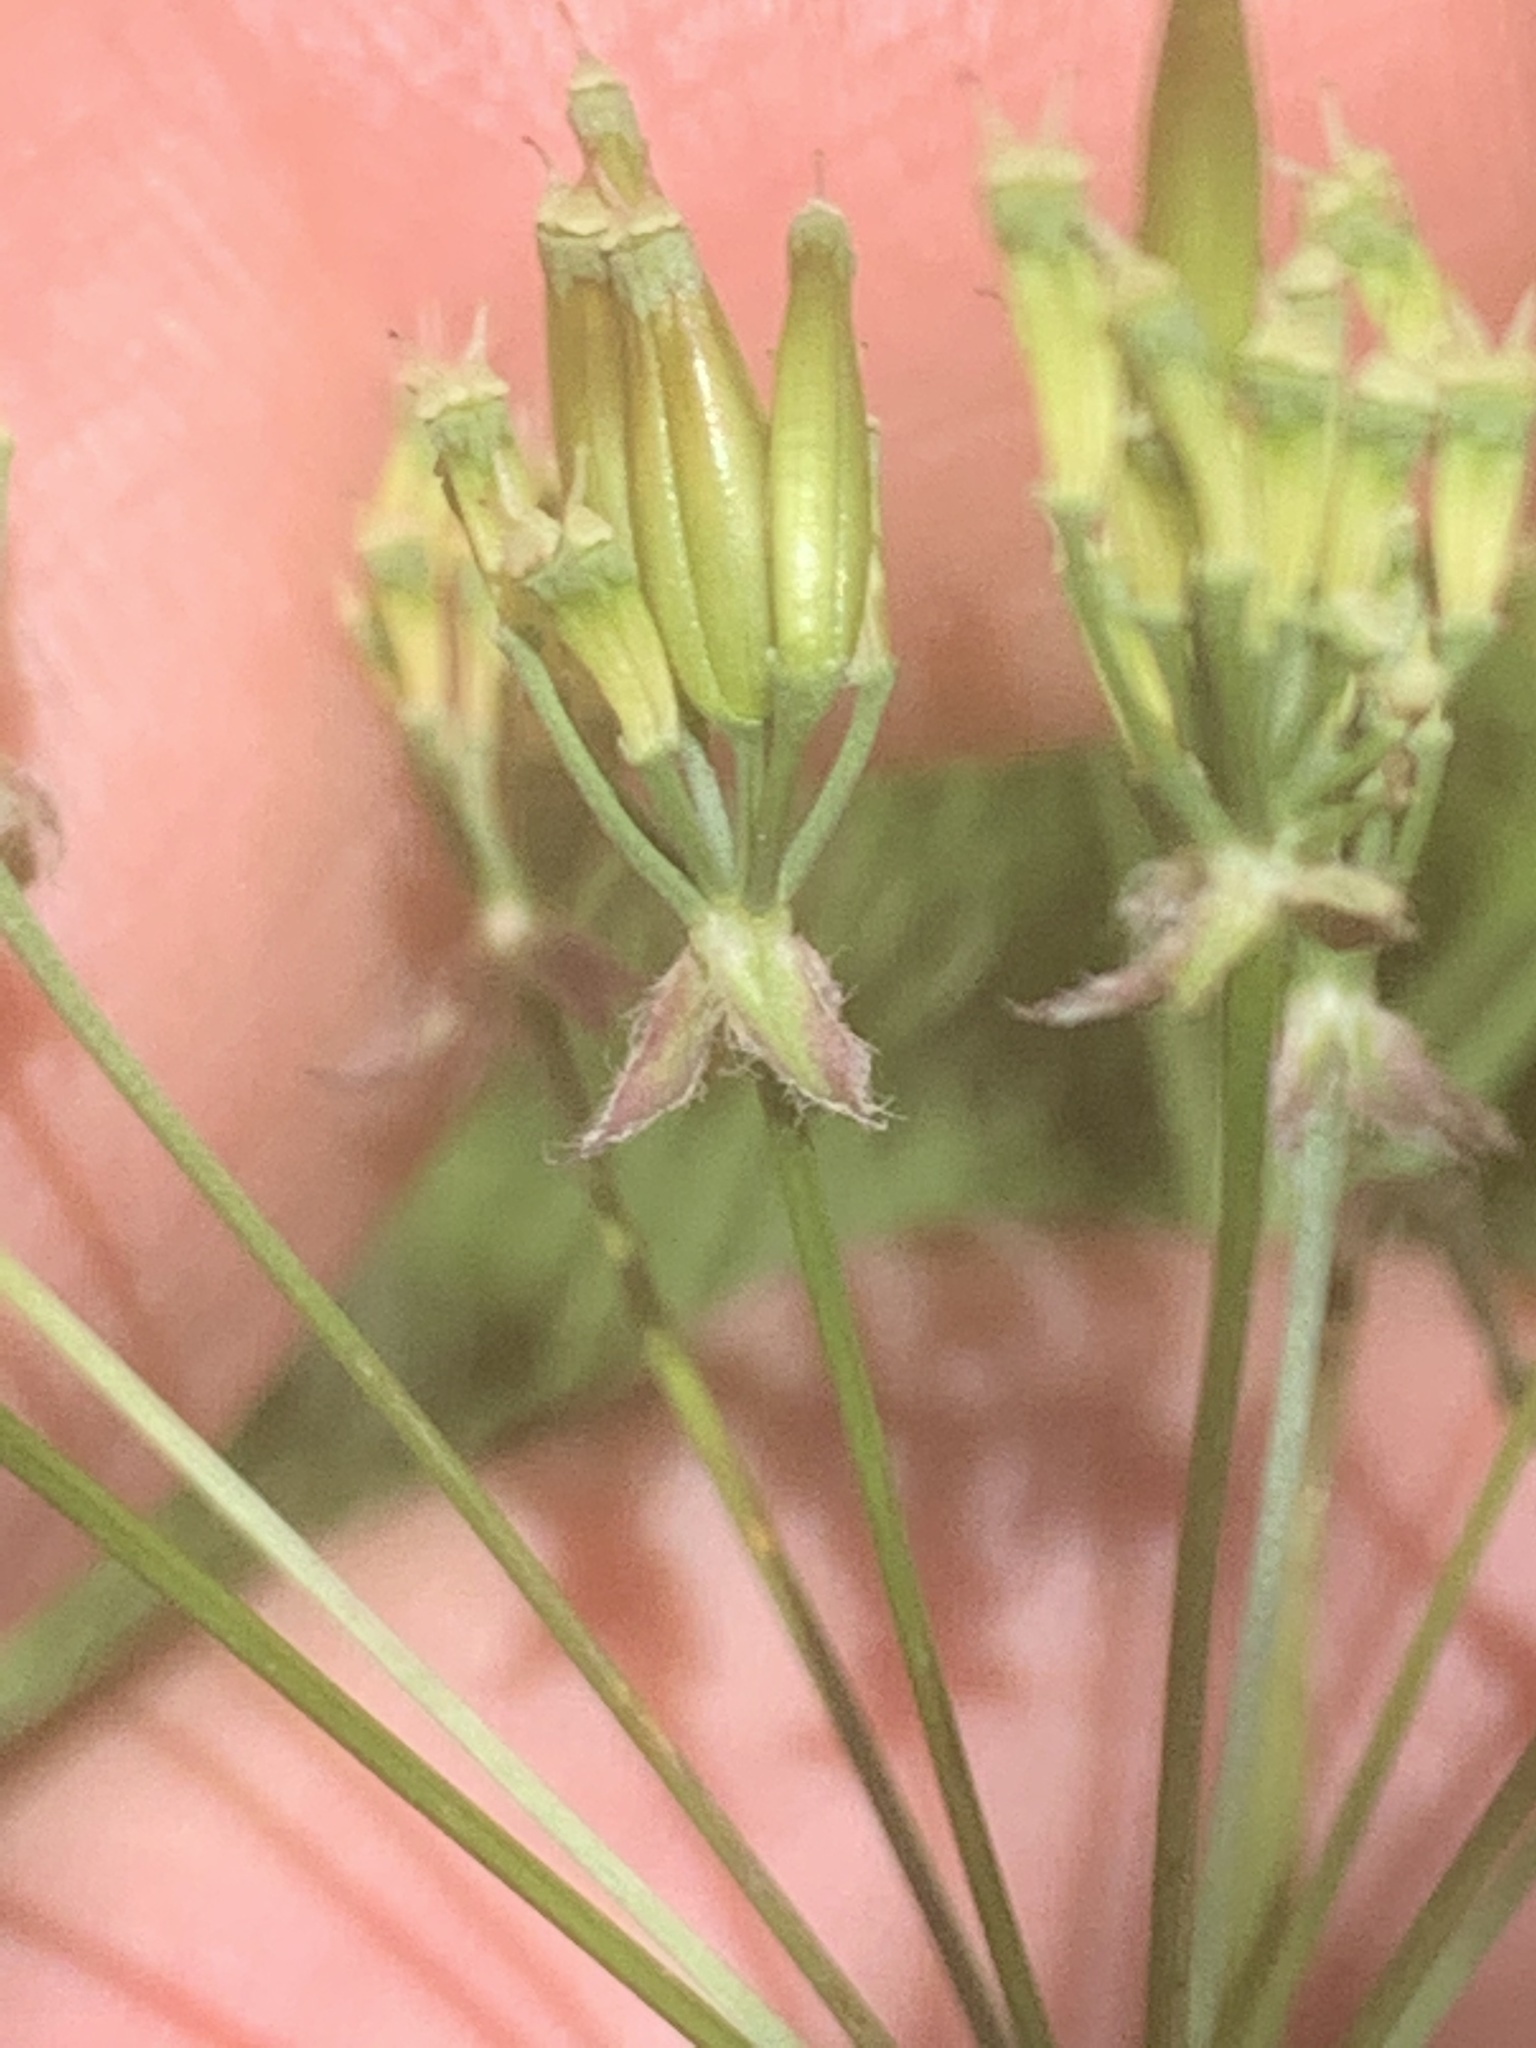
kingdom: Plantae
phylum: Tracheophyta
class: Magnoliopsida
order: Apiales
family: Apiaceae
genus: Anthriscus
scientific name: Anthriscus sylvestris
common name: Cow parsley
